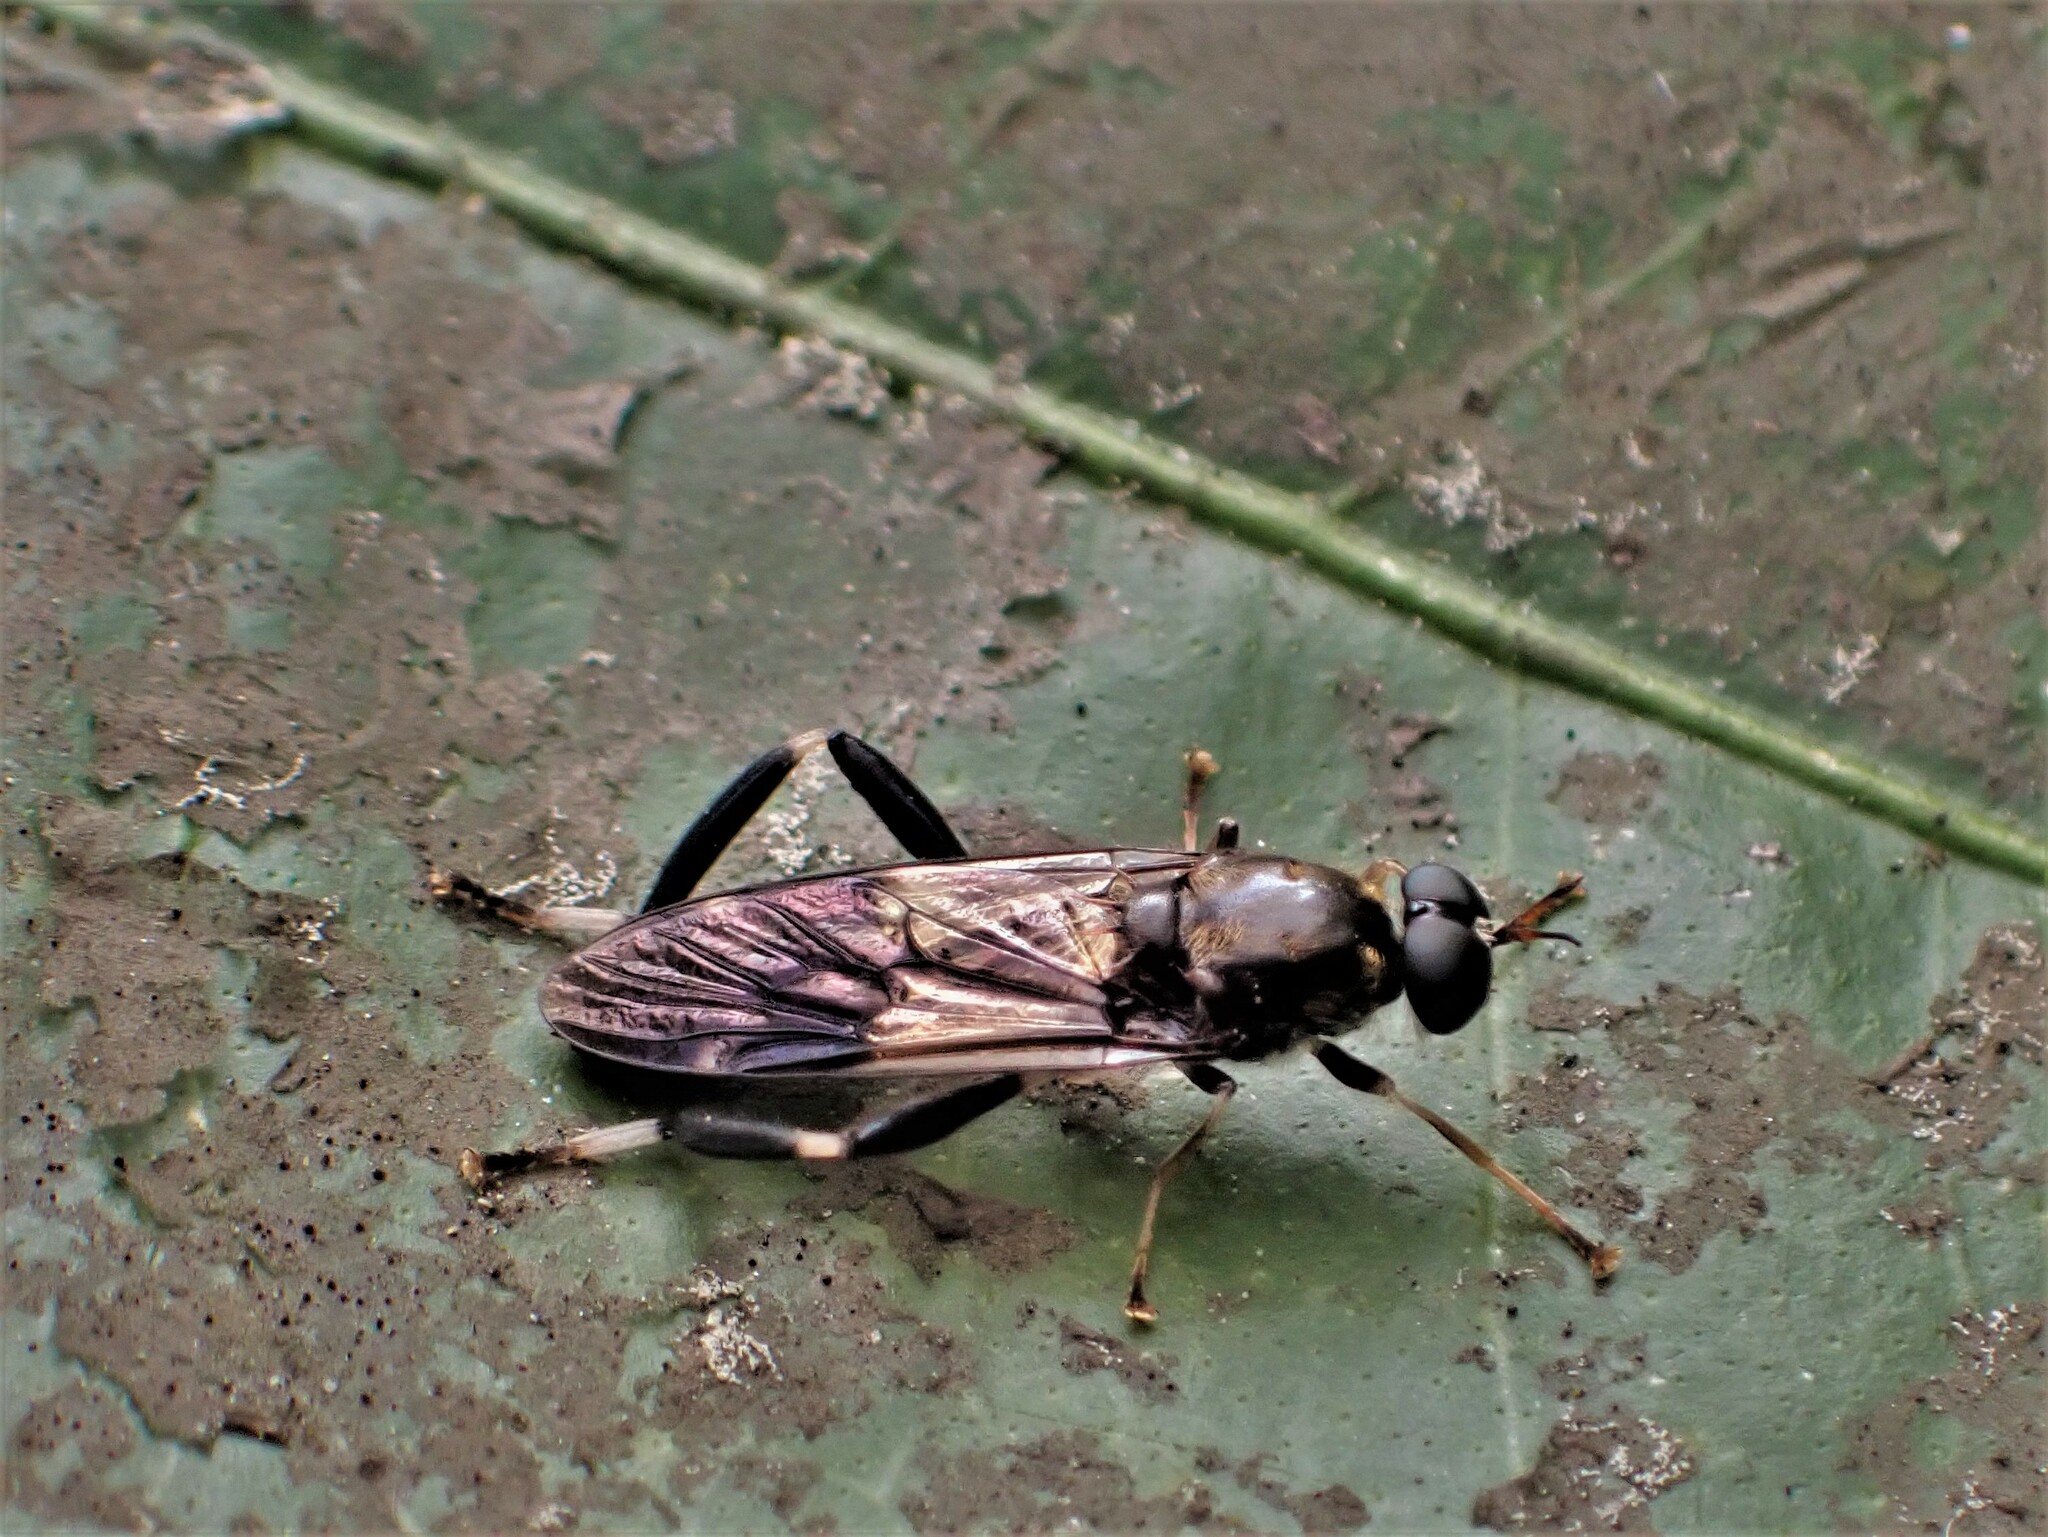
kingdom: Animalia
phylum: Arthropoda
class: Insecta
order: Diptera
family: Stratiomyidae
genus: Exaireta
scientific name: Exaireta spinigera
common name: Blue soldier fly
